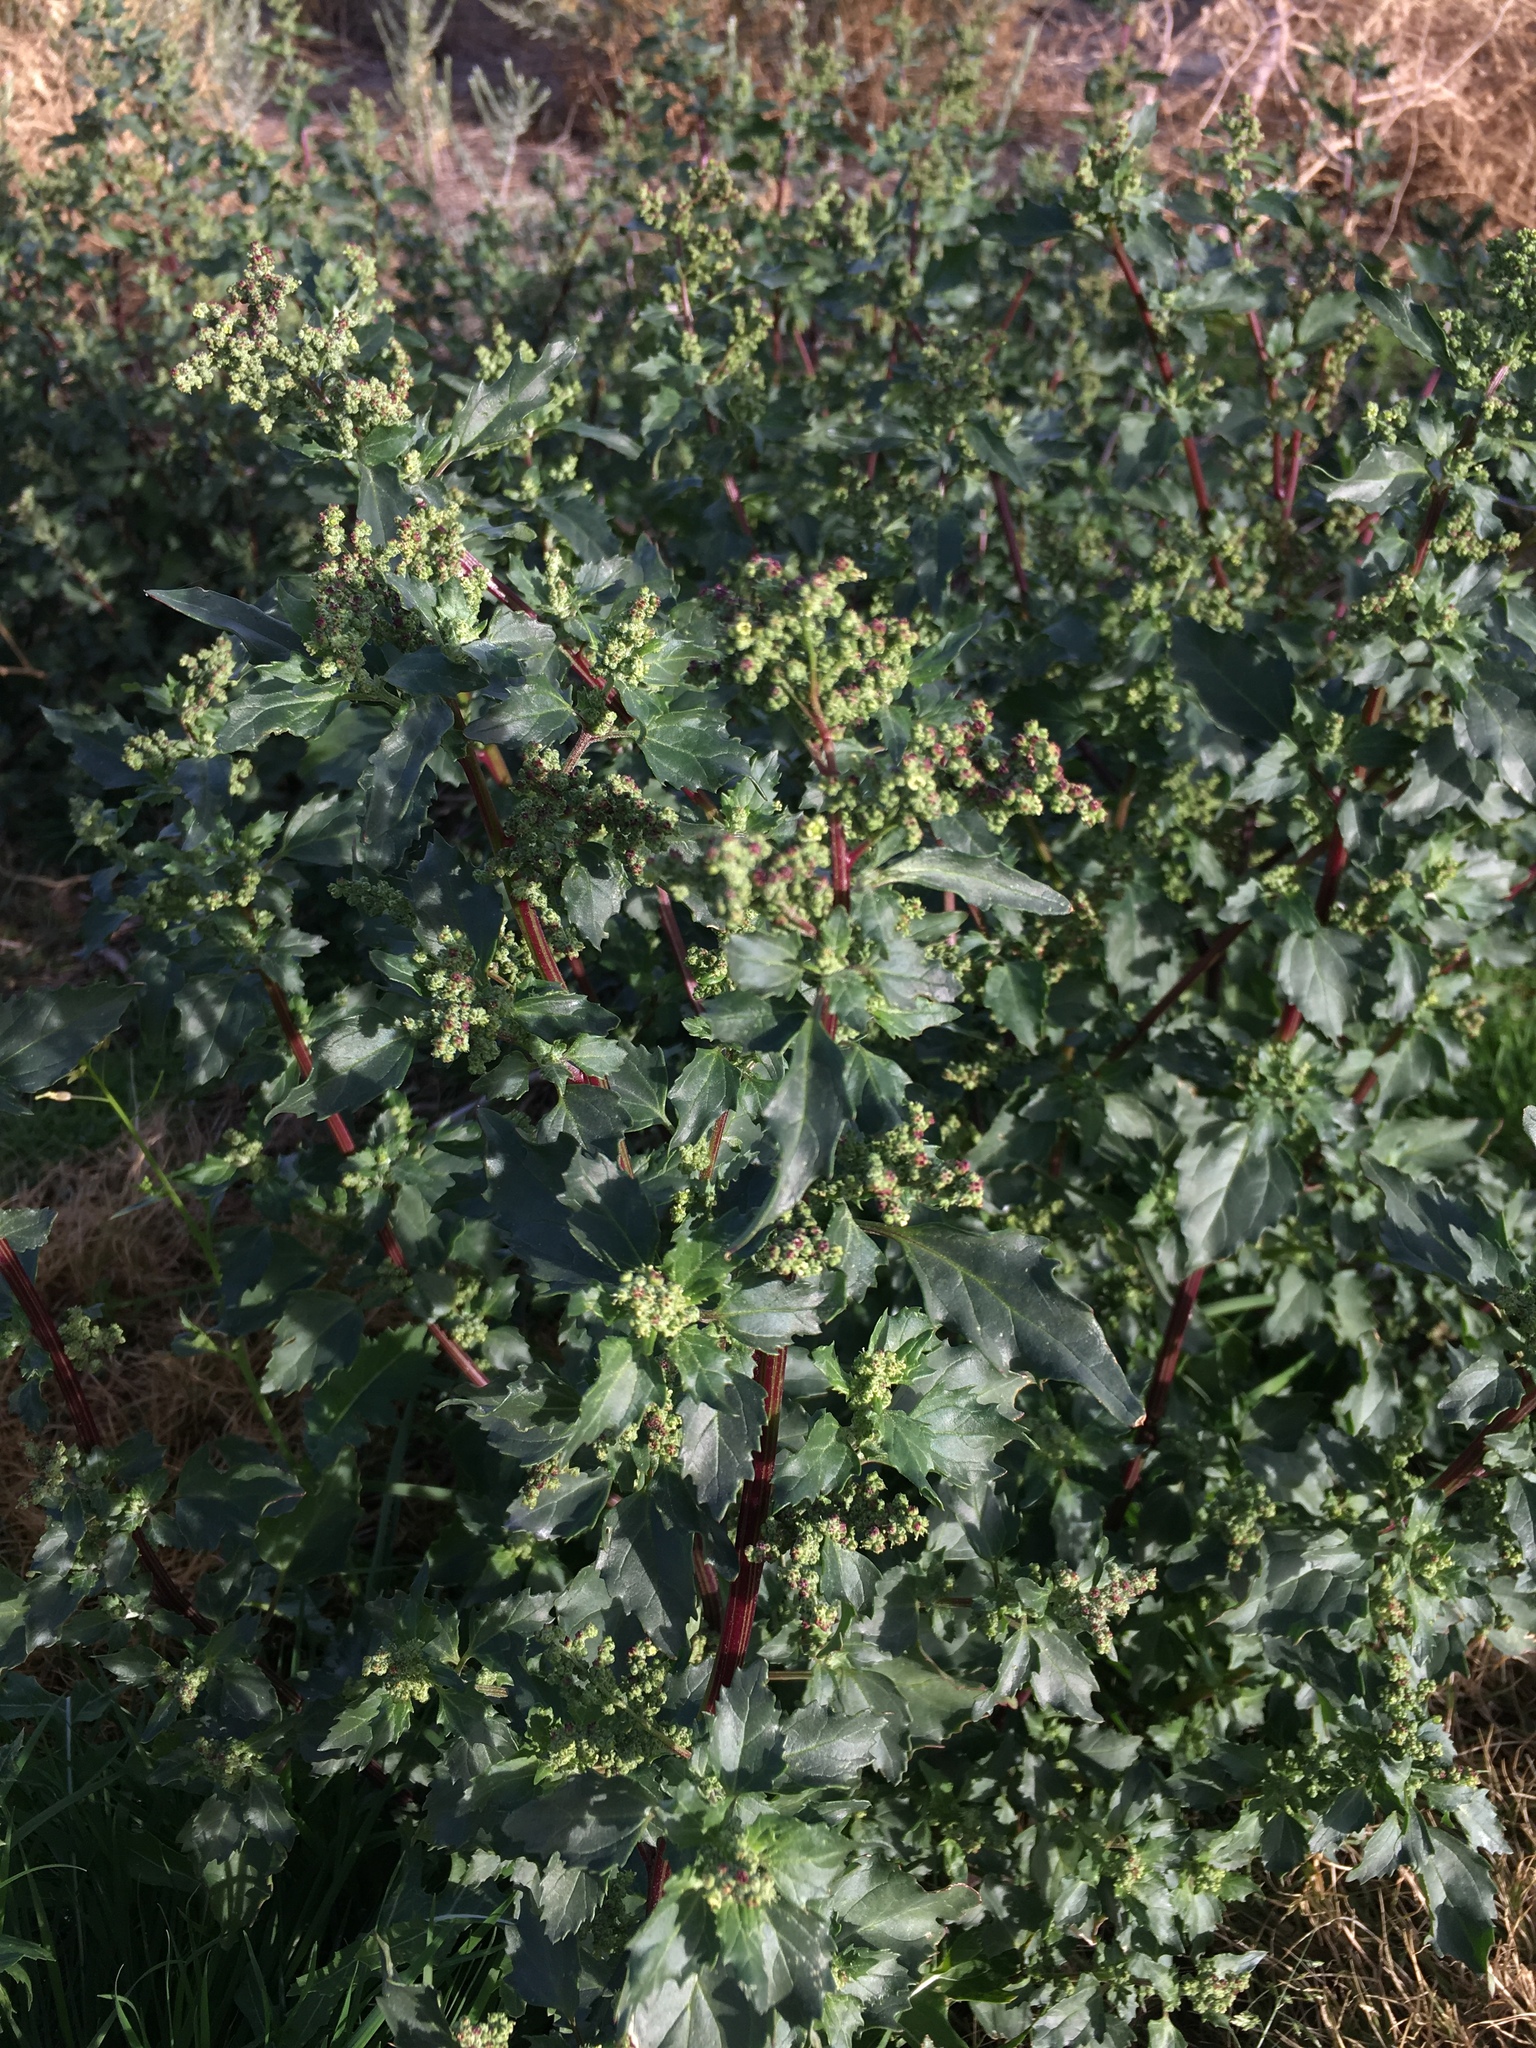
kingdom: Plantae
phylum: Tracheophyta
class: Magnoliopsida
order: Caryophyllales
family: Amaranthaceae
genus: Chenopodiastrum
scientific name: Chenopodiastrum murale
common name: Sowbane
